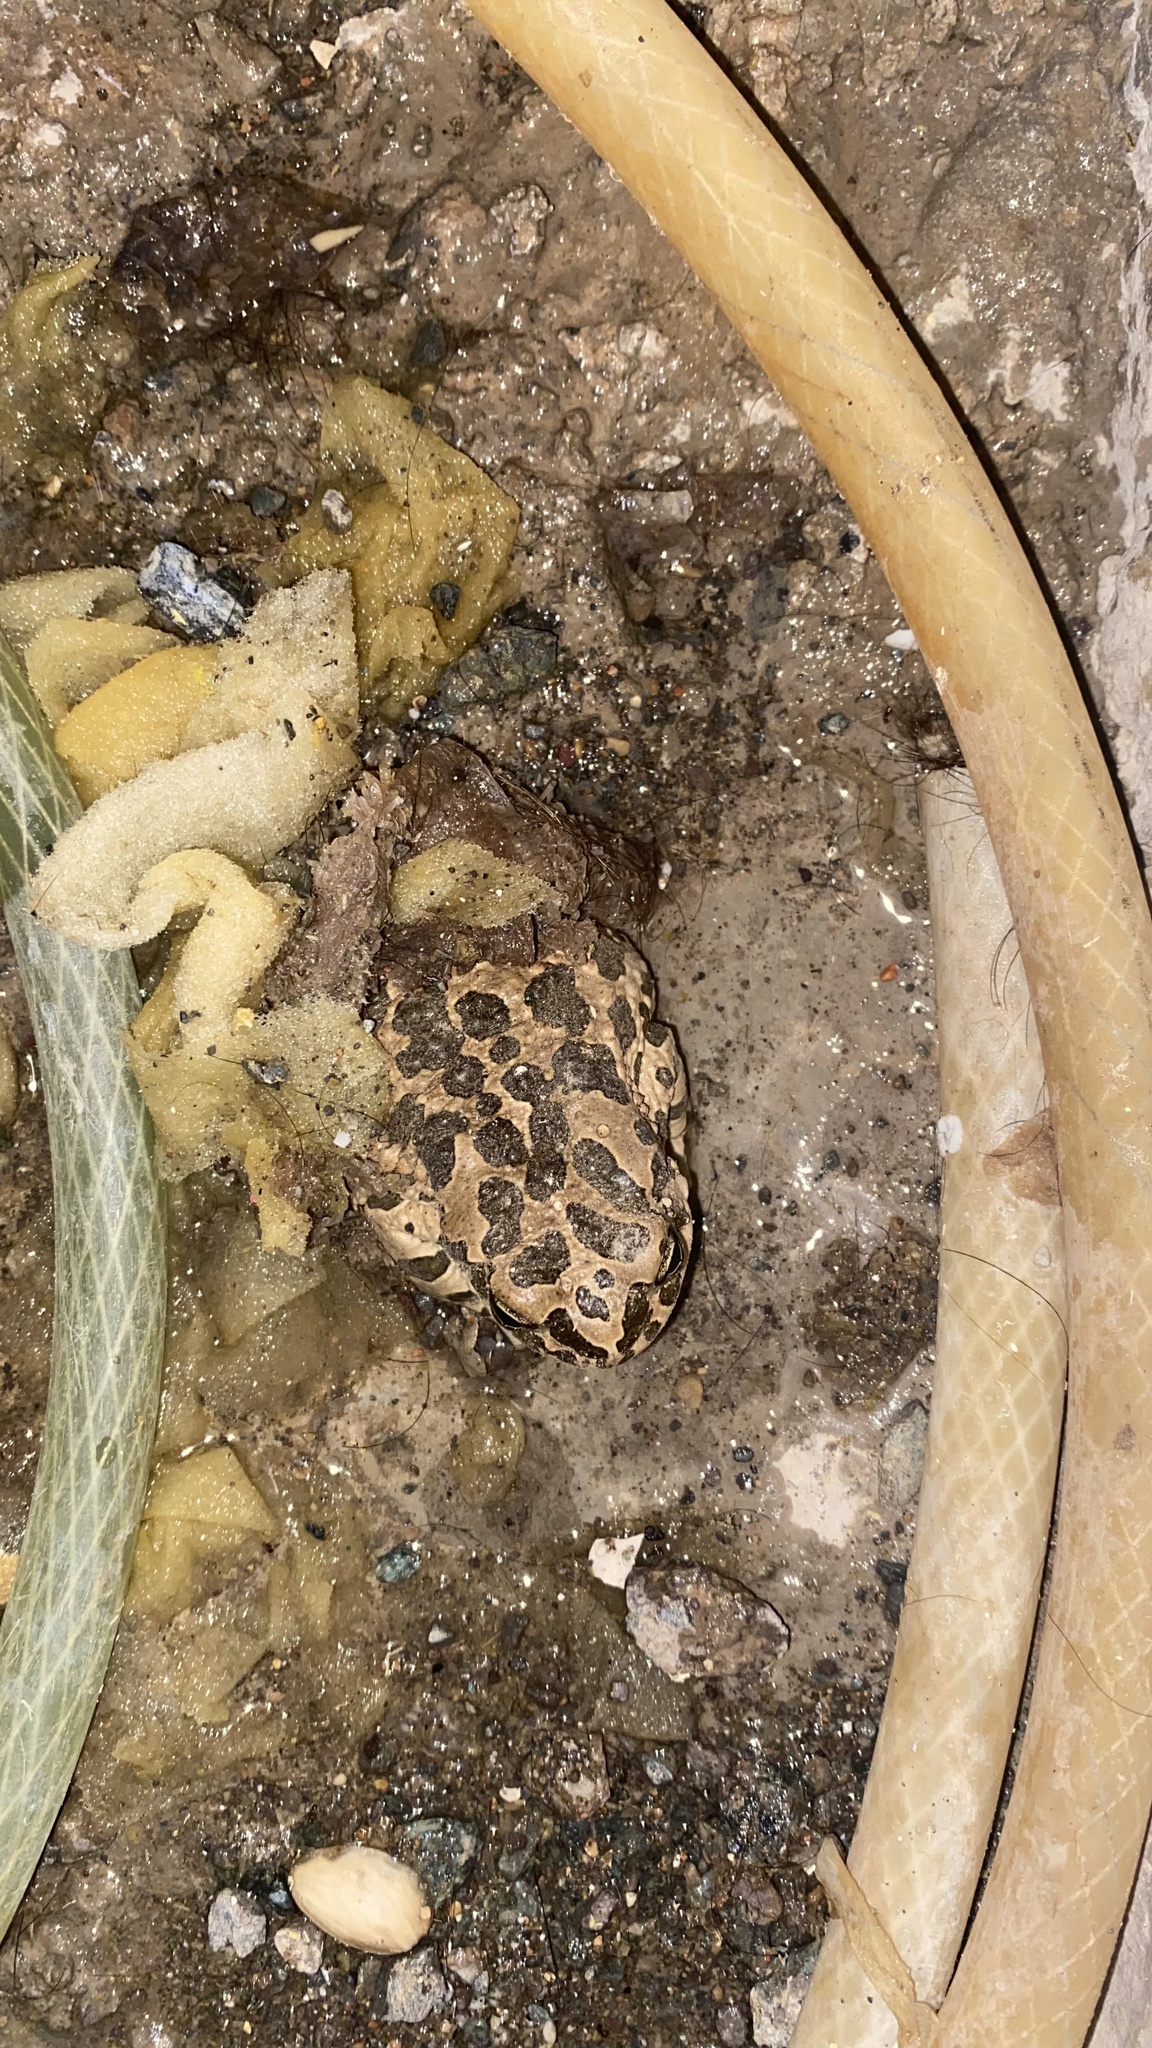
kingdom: Animalia
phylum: Chordata
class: Amphibia
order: Anura
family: Bufonidae
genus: Bufotes
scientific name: Bufotes viridis
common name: European green toad
